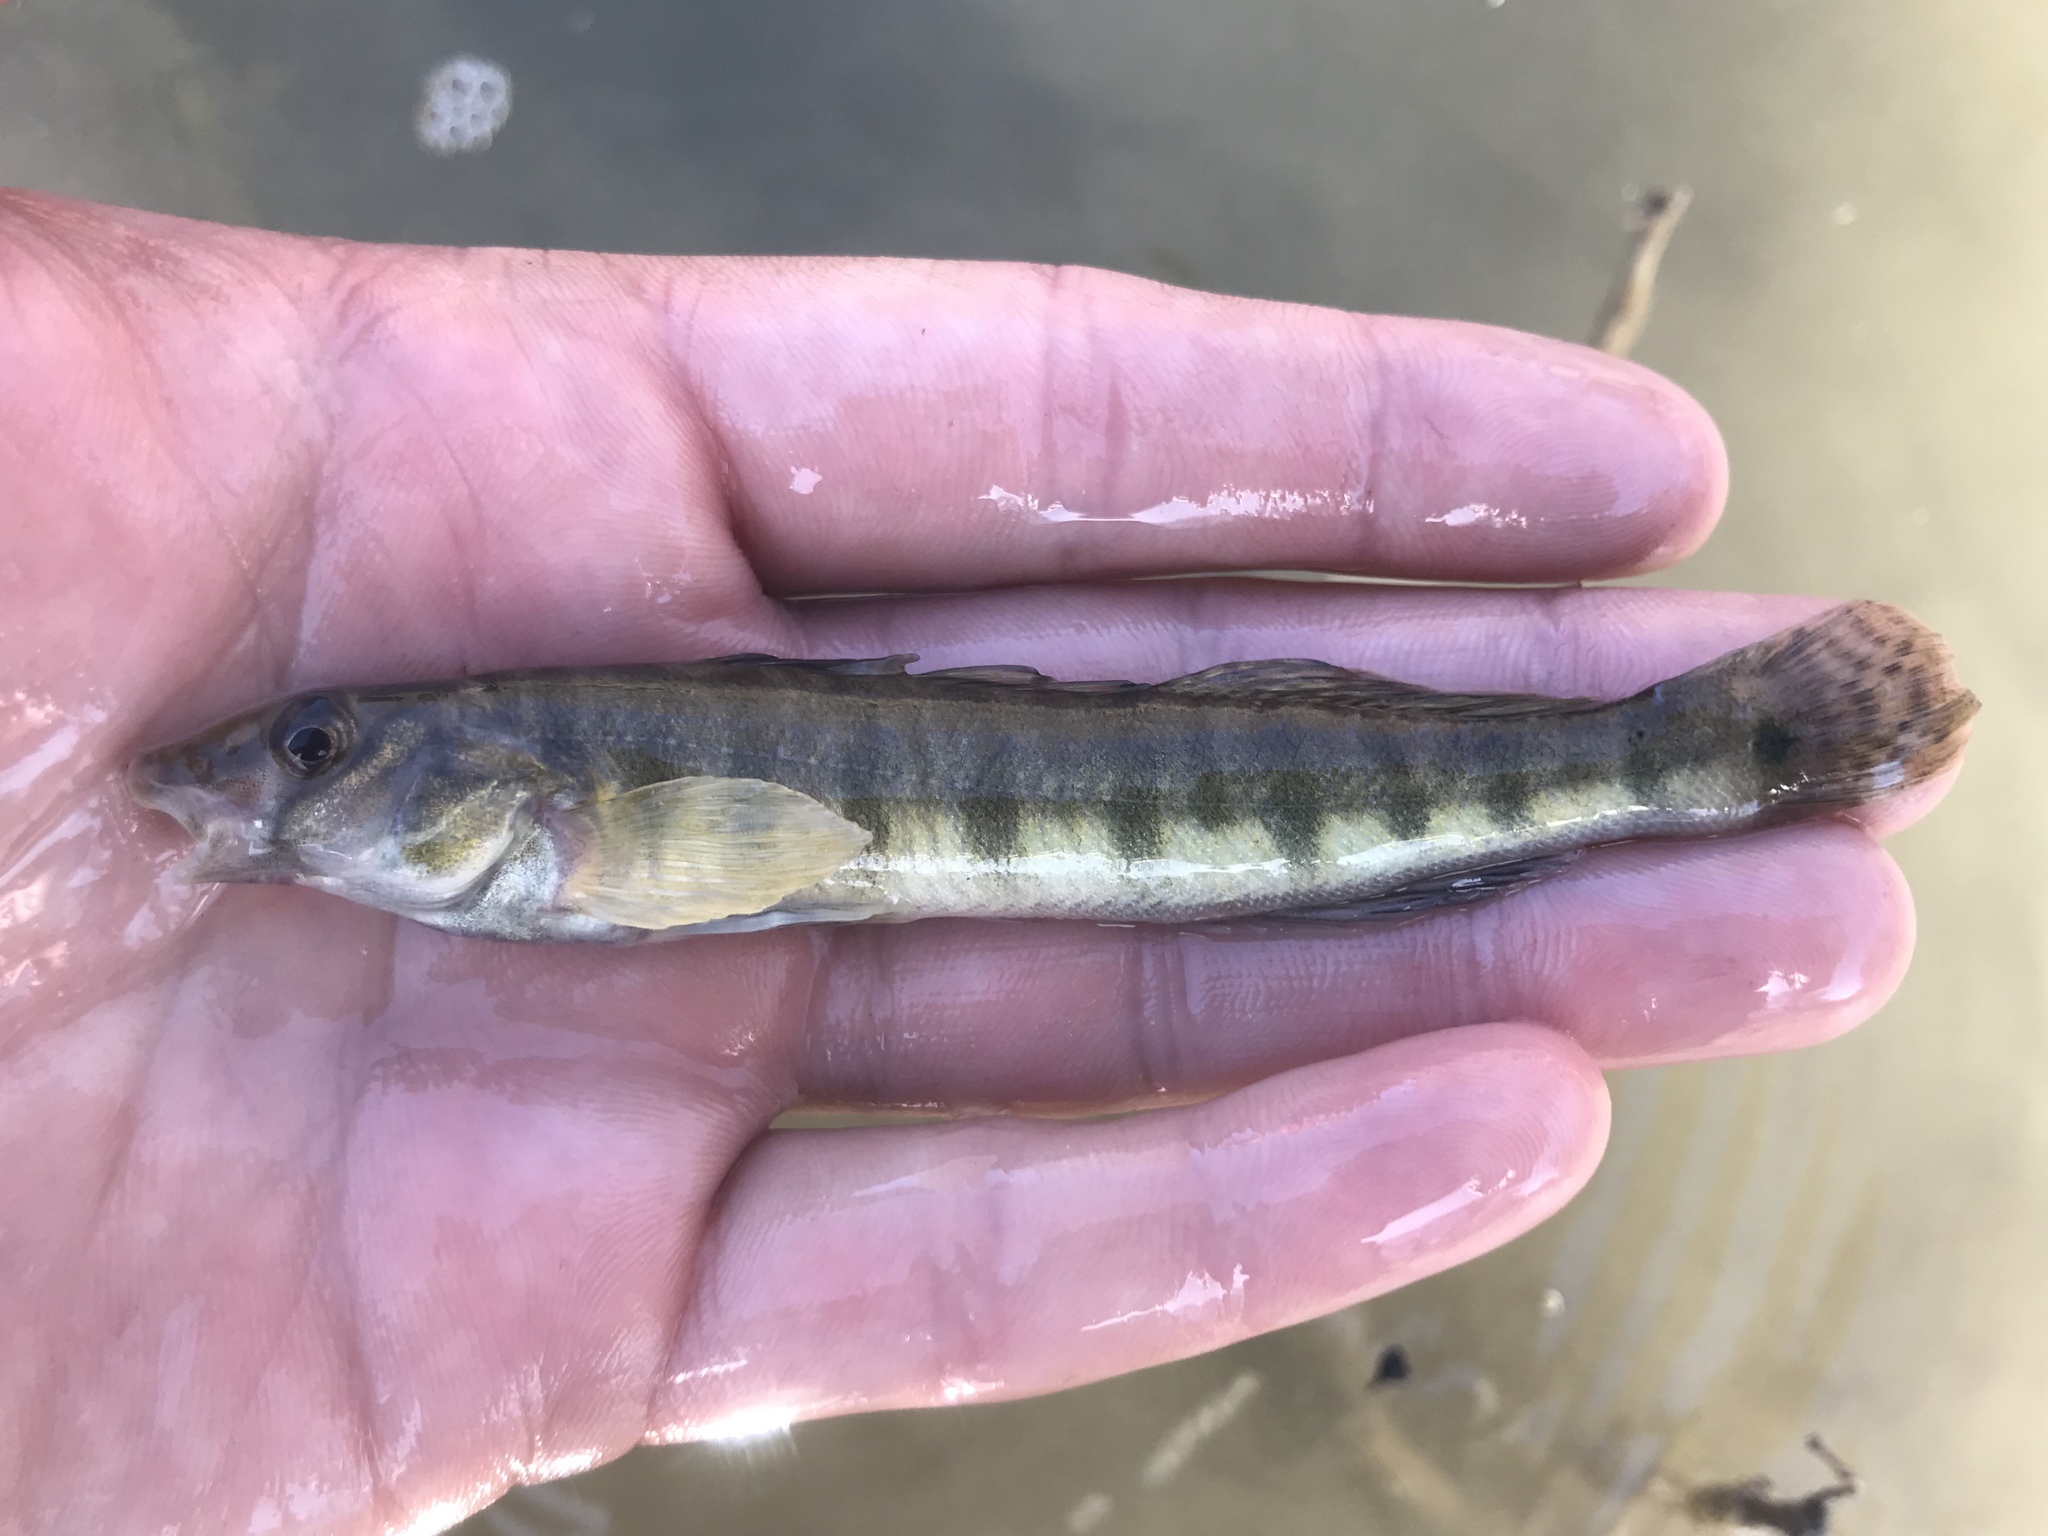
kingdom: Animalia
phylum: Chordata
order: Perciformes
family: Percidae
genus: Percina
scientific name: Percina carbonaria
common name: Texas logperch
